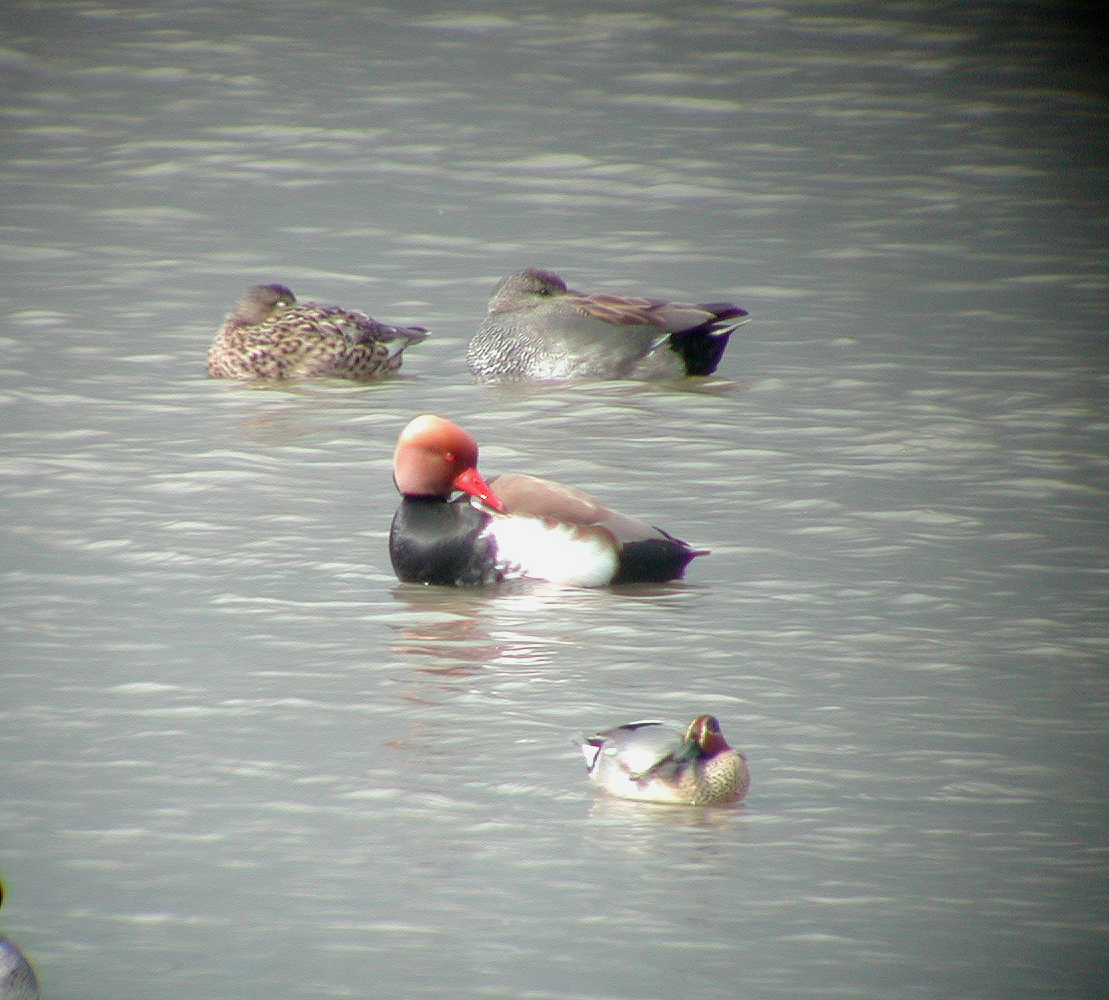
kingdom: Animalia
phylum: Chordata
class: Aves
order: Anseriformes
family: Anatidae
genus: Netta
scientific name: Netta rufina
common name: Red-crested pochard
